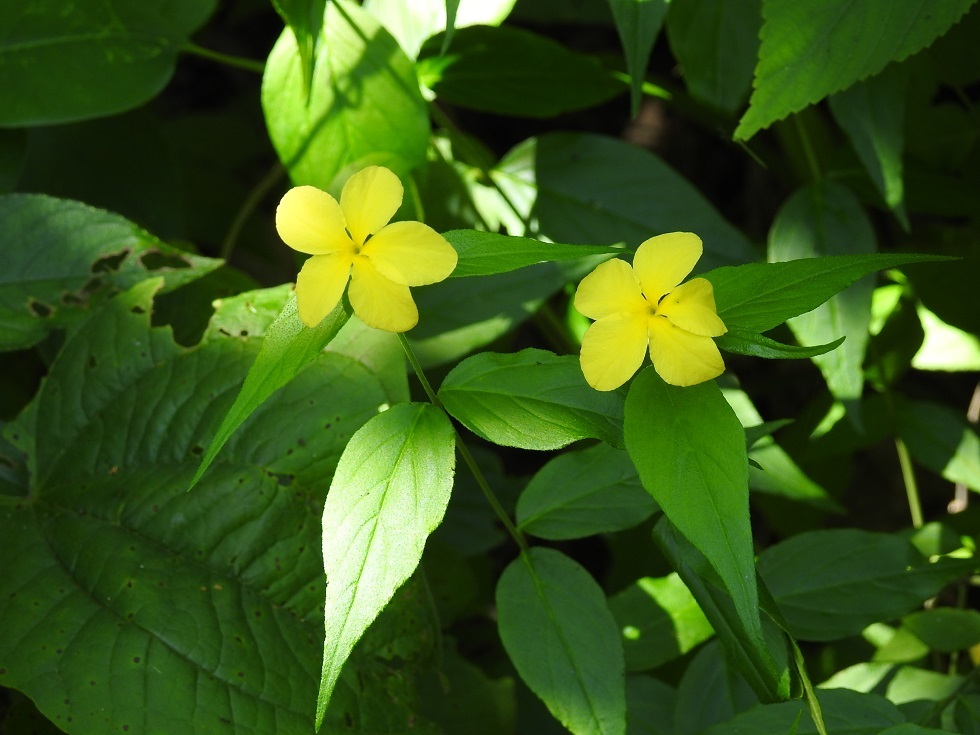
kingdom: Plantae
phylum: Tracheophyta
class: Magnoliopsida
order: Gentianales
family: Apocynaceae
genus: Haplophyton
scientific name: Haplophyton cimicidum
